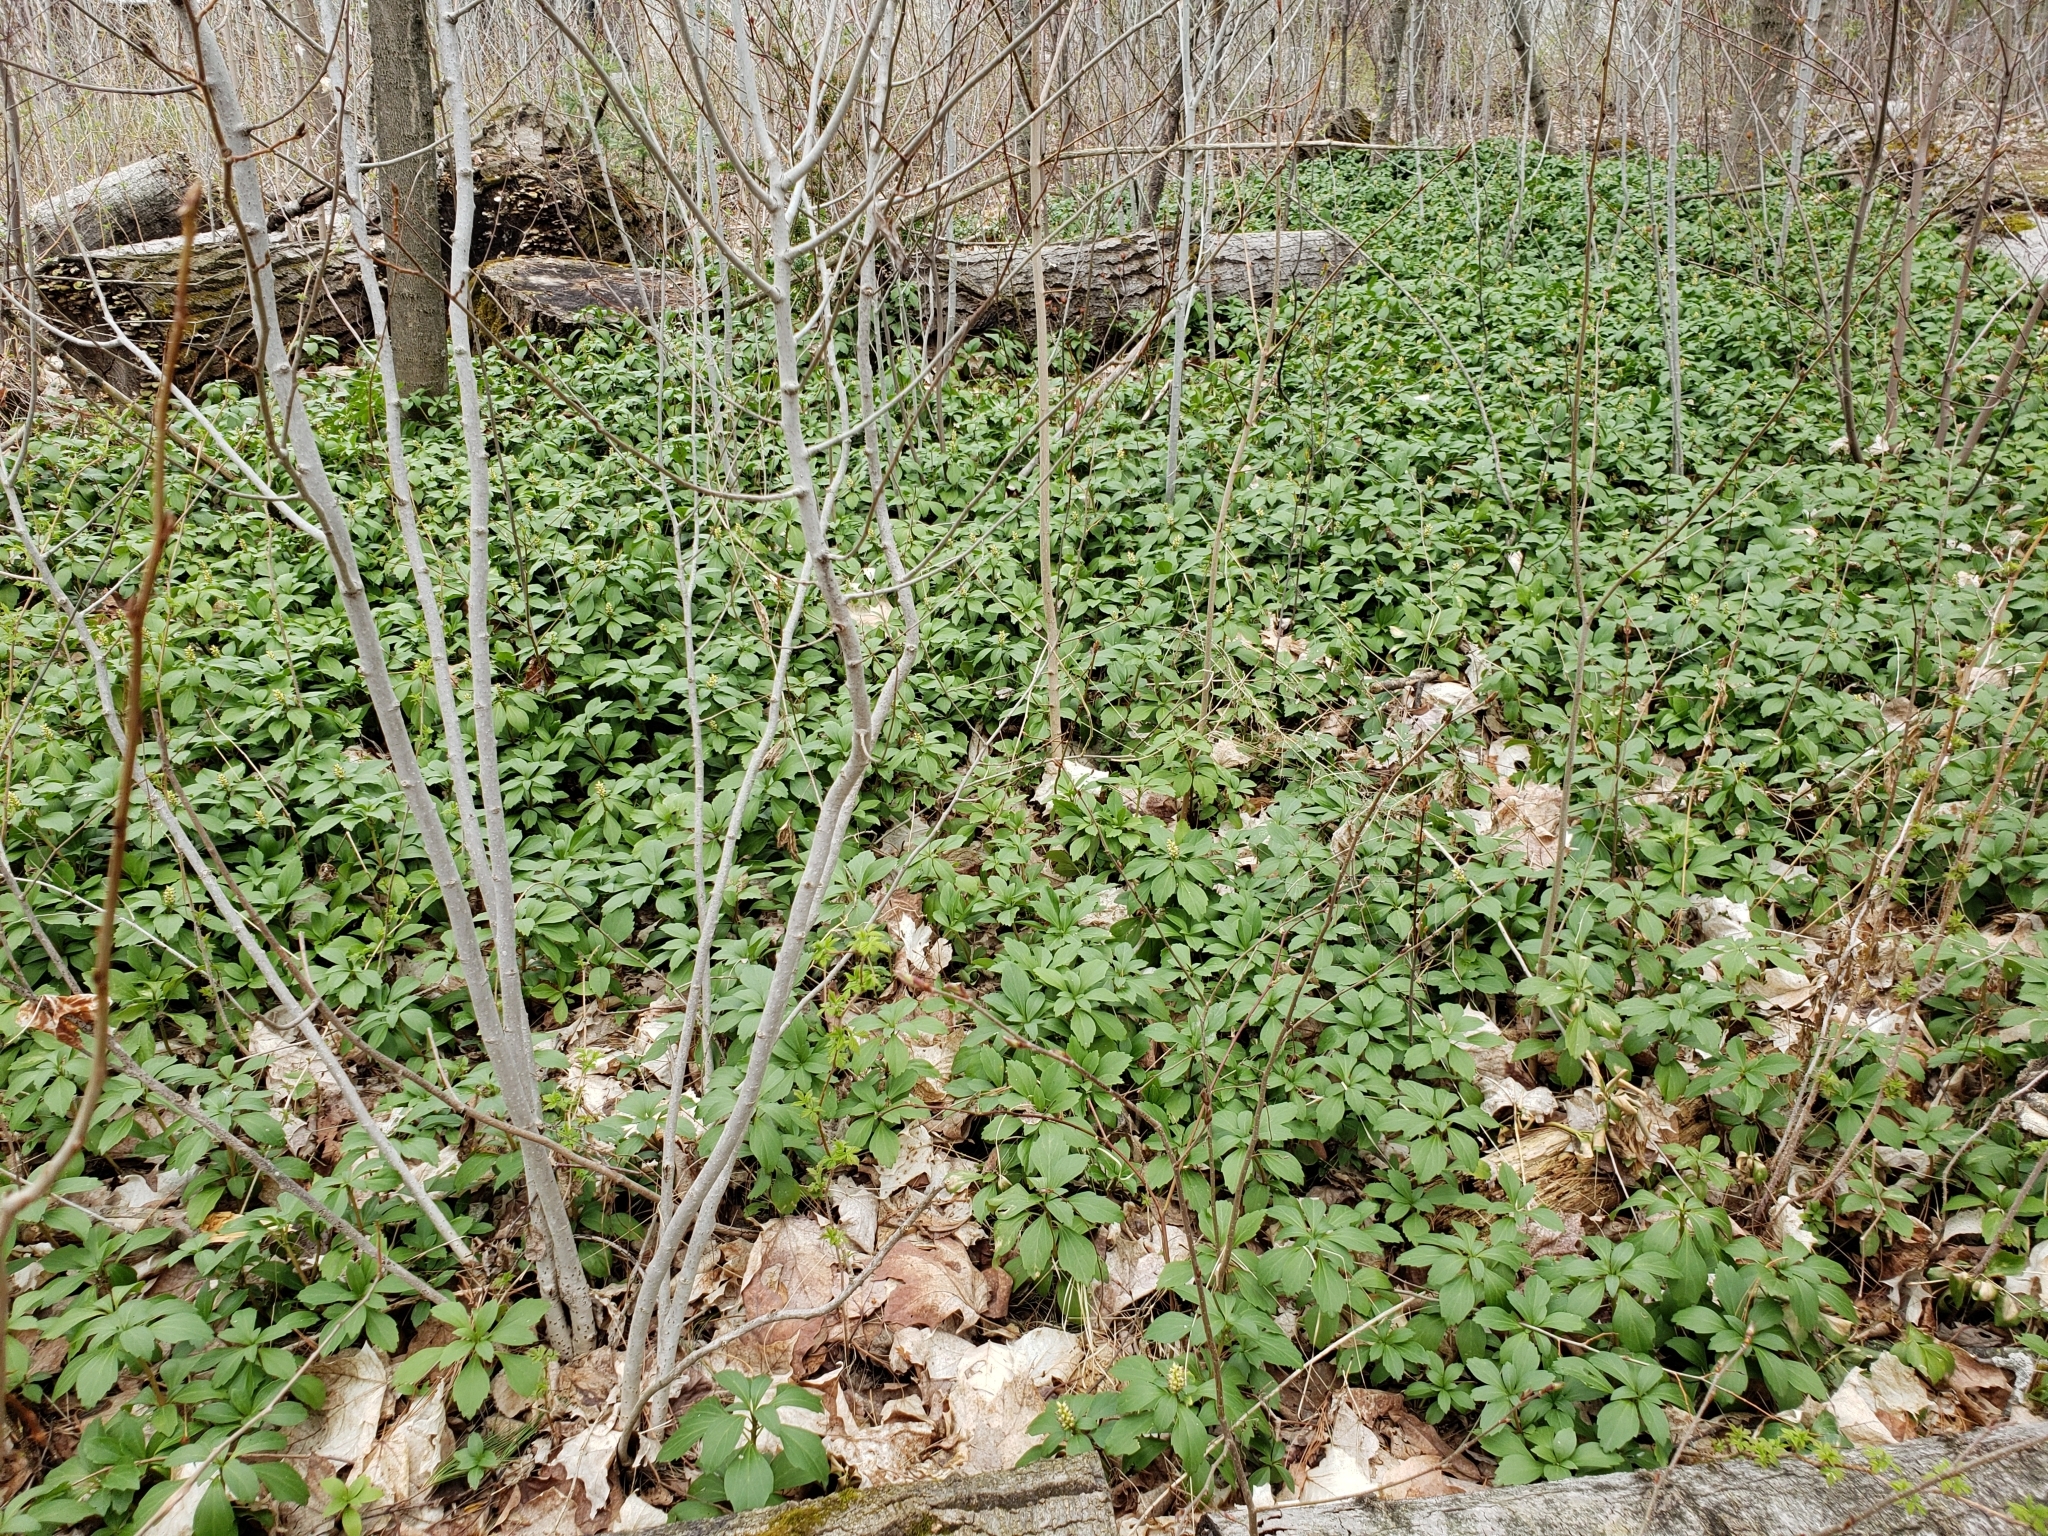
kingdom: Plantae
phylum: Tracheophyta
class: Magnoliopsida
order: Buxales
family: Buxaceae
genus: Pachysandra
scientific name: Pachysandra terminalis
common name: Japanese pachysandra
